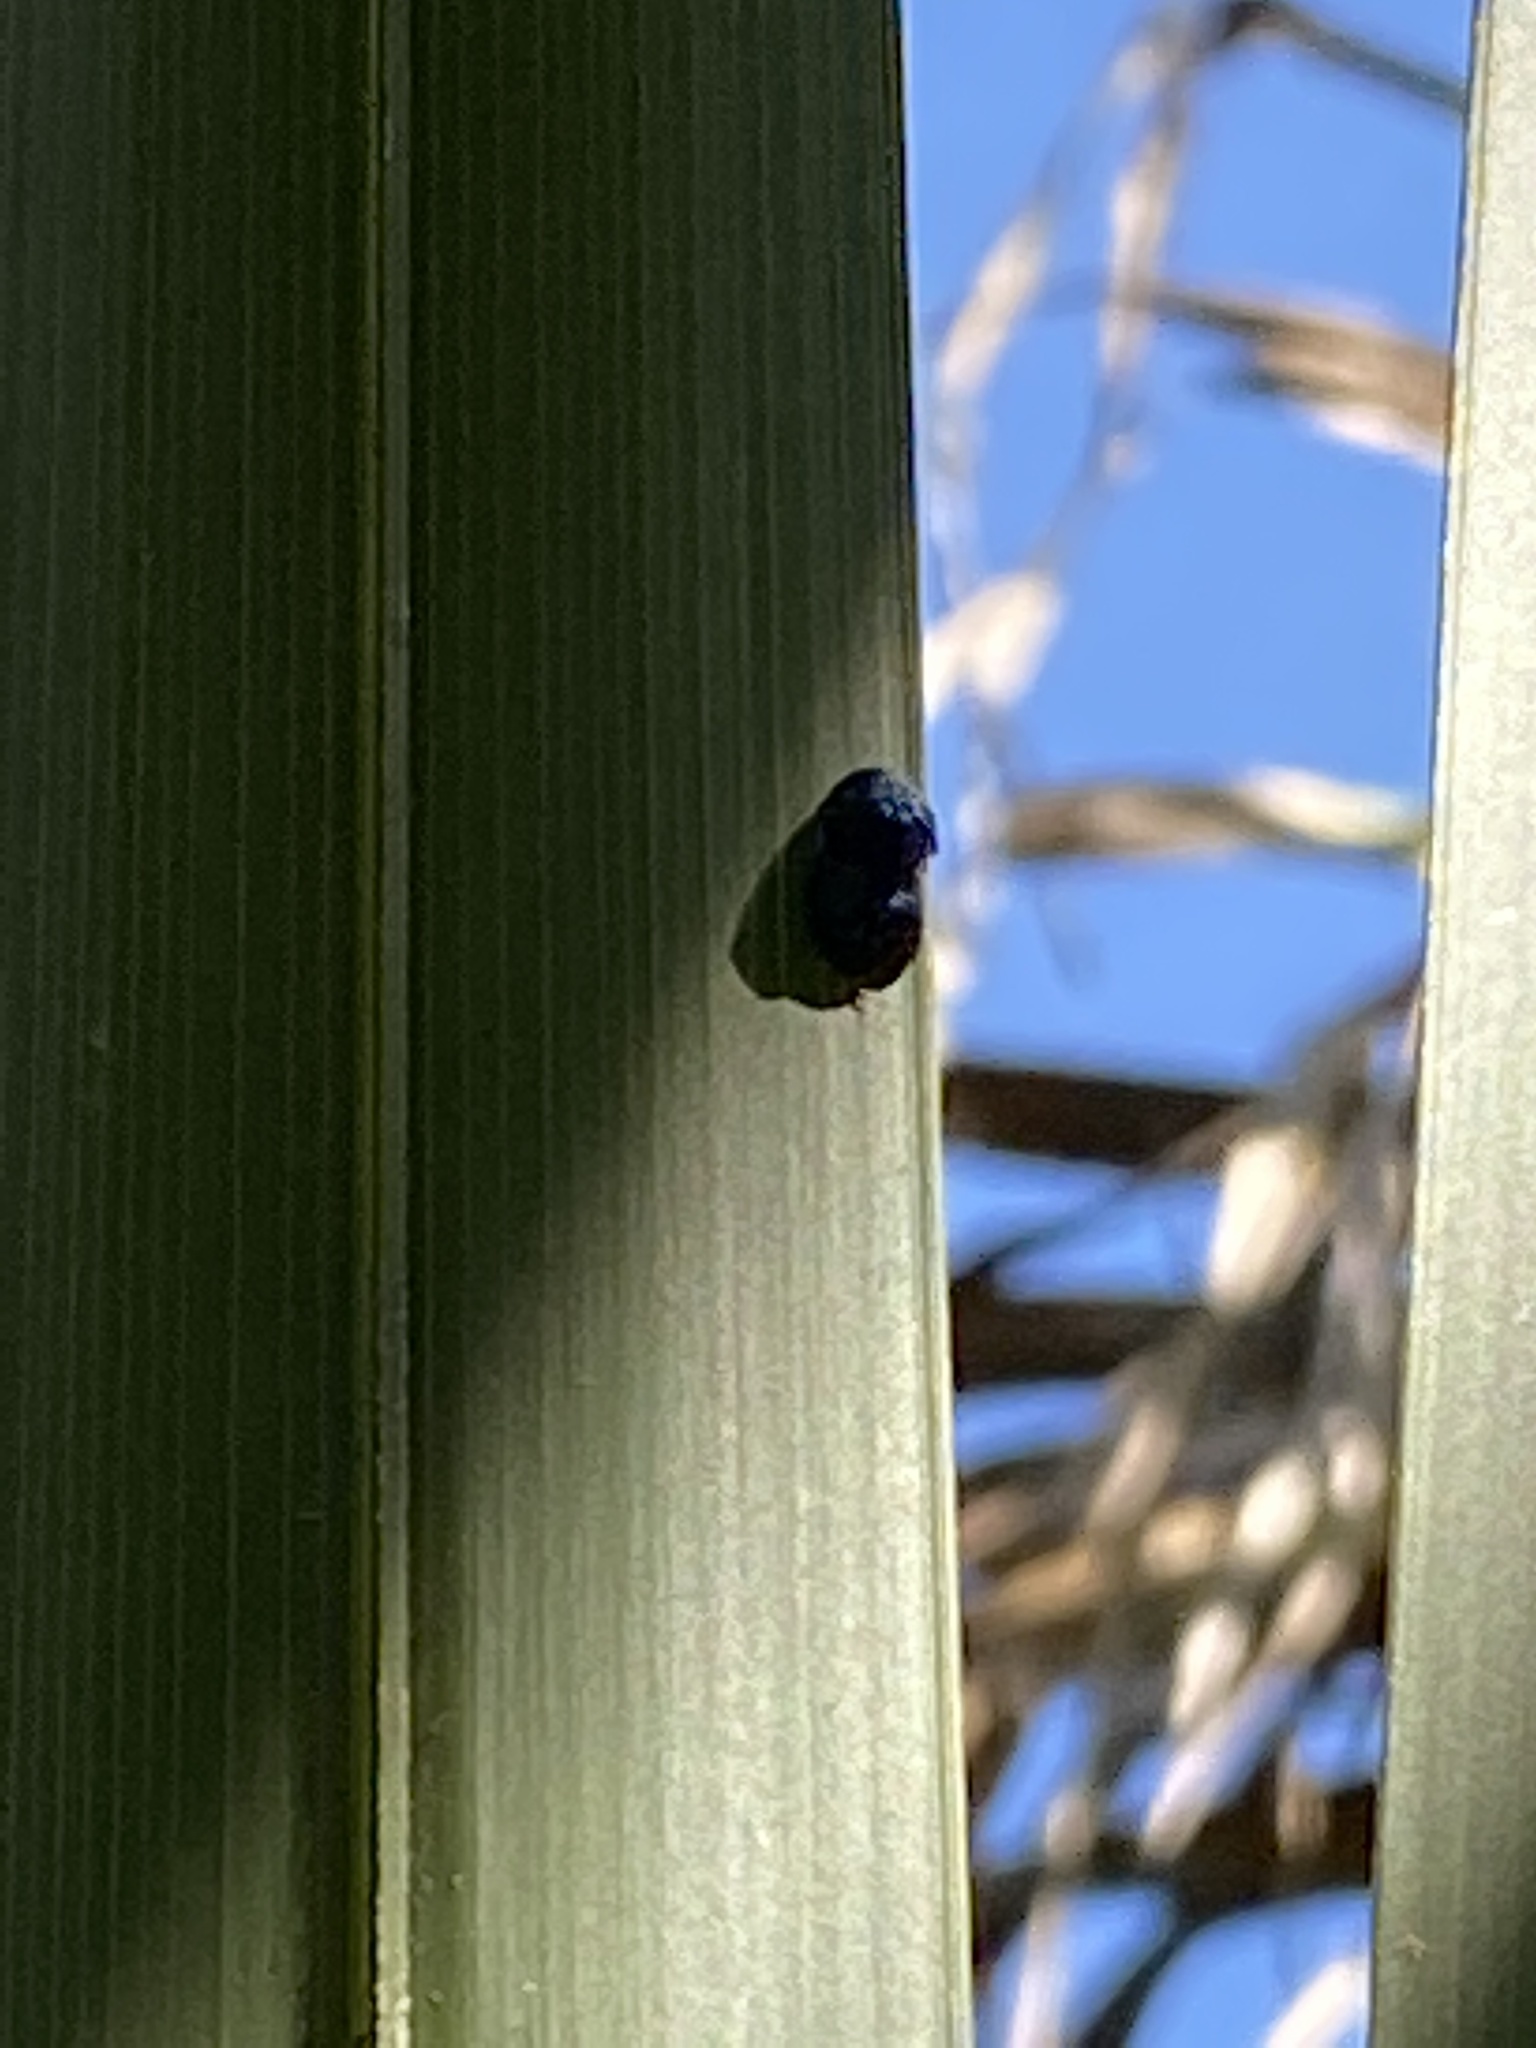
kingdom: Animalia
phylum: Arthropoda
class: Insecta
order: Coleoptera
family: Chrysomelidae
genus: Hemisphaerota
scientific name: Hemisphaerota cyanea
